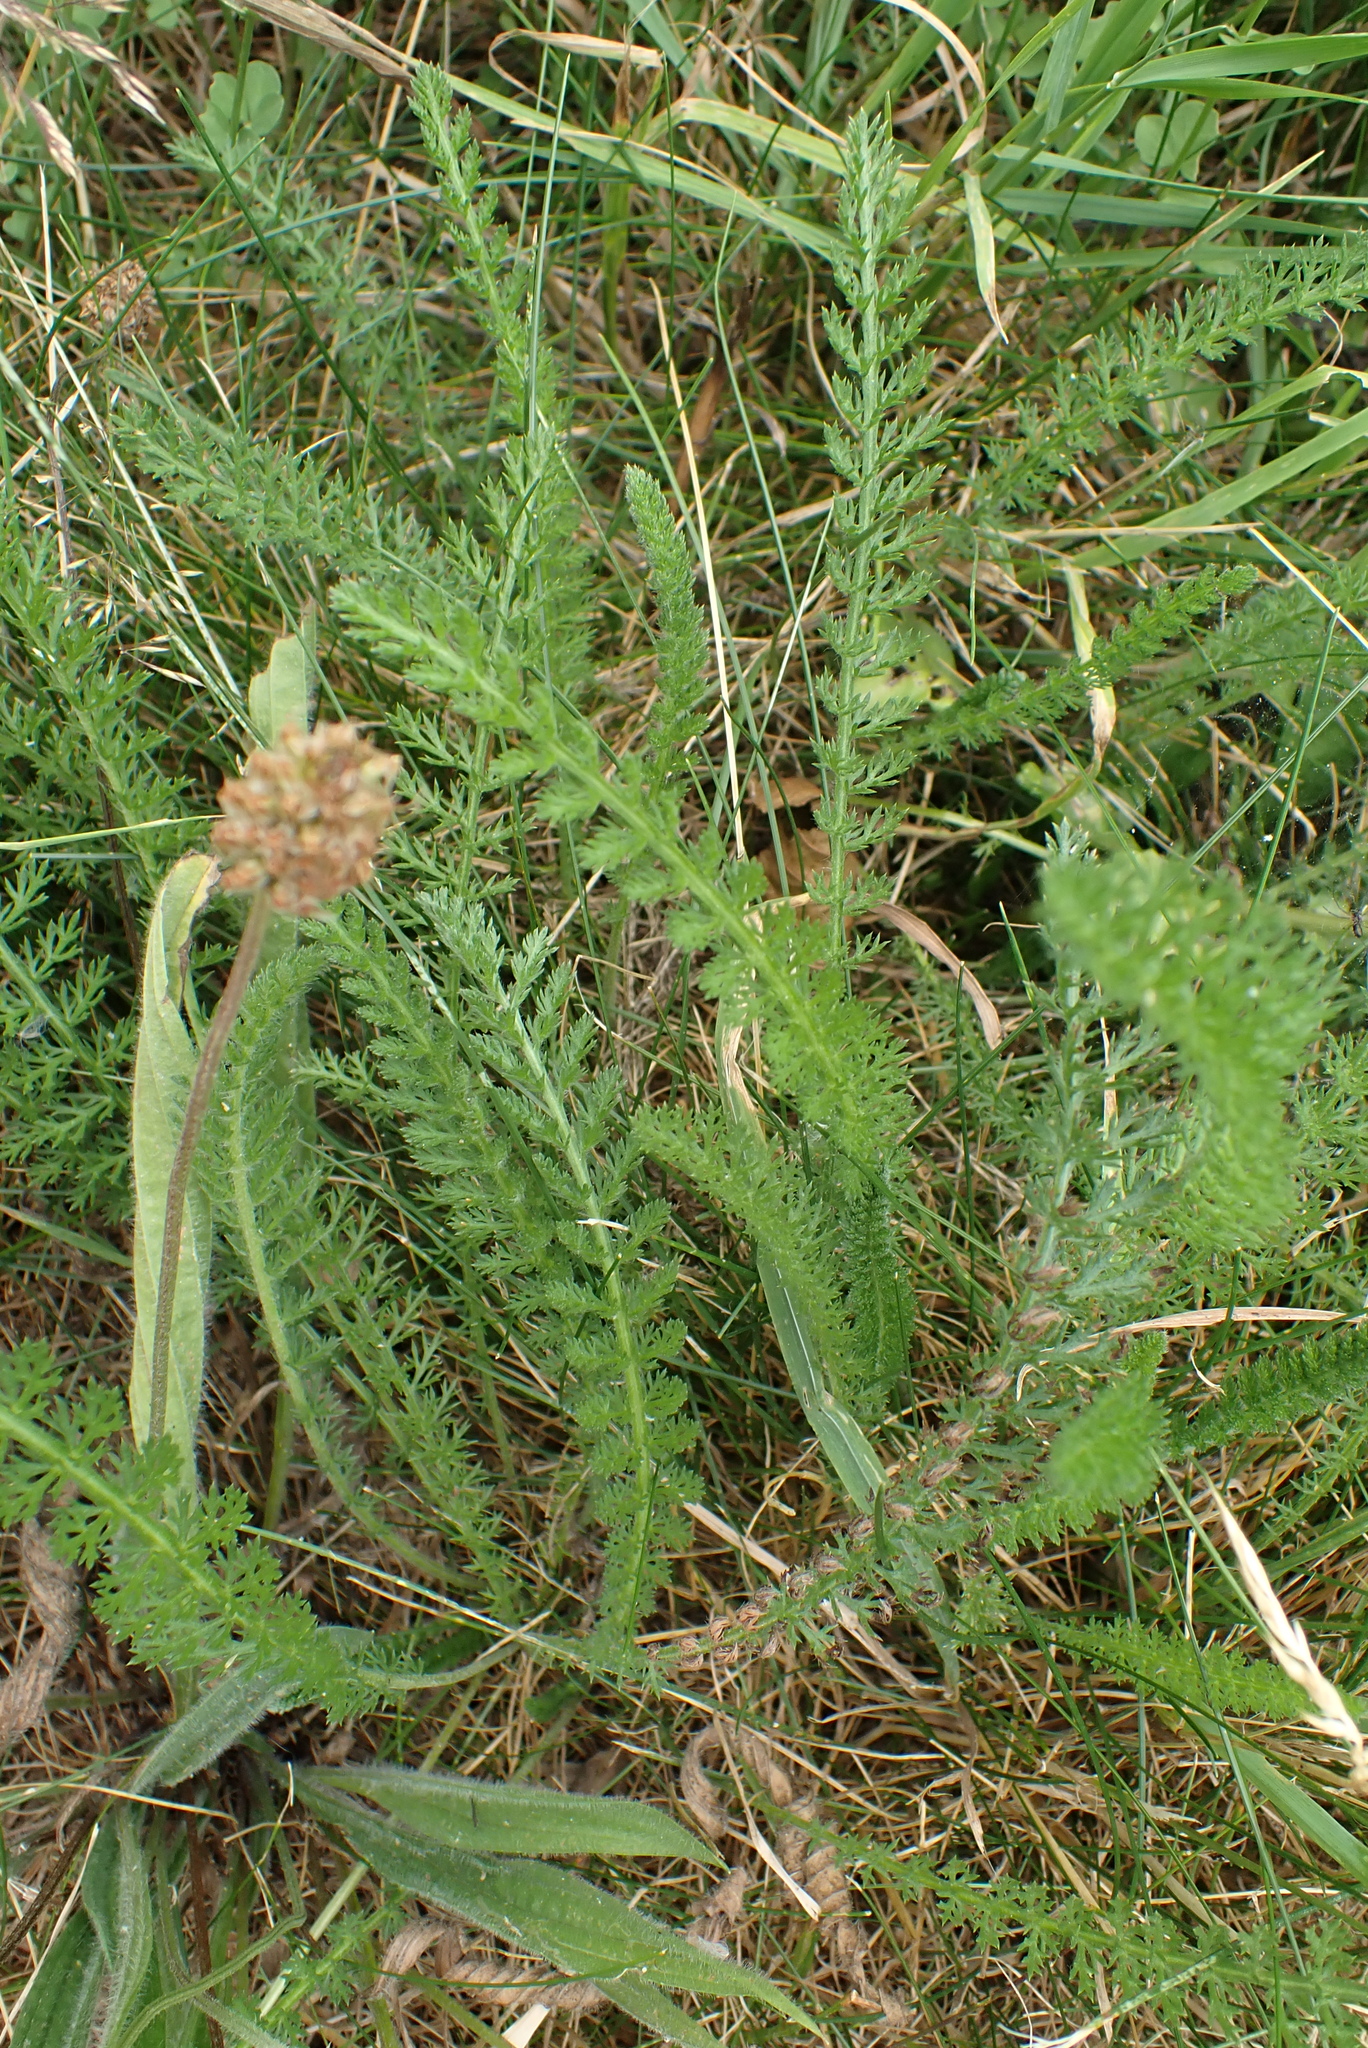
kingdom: Plantae
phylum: Tracheophyta
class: Magnoliopsida
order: Asterales
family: Asteraceae
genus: Achillea
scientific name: Achillea millefolium
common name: Yarrow
